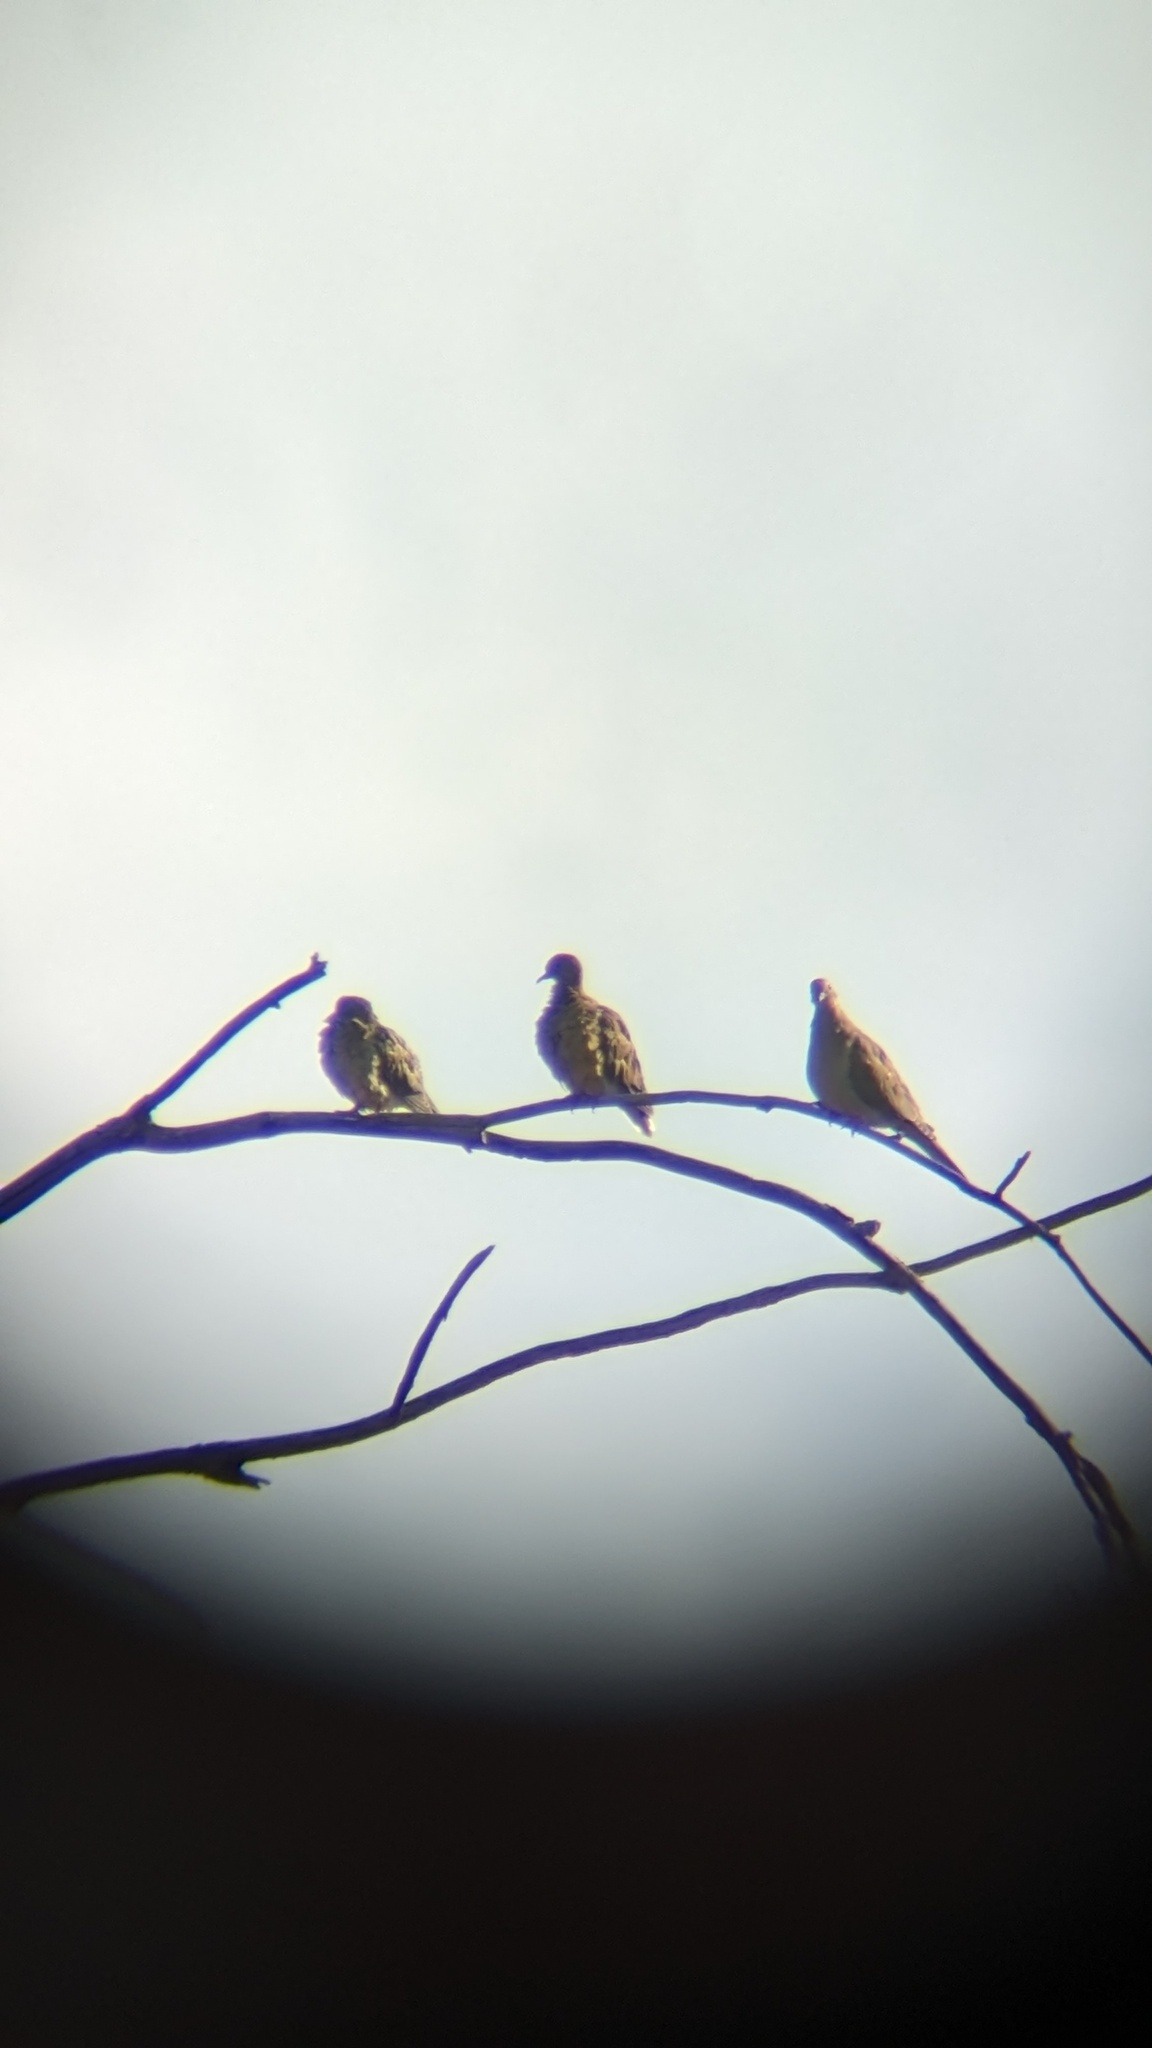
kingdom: Animalia
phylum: Chordata
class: Aves
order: Columbiformes
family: Columbidae
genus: Zenaida
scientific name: Zenaida macroura
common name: Mourning dove
